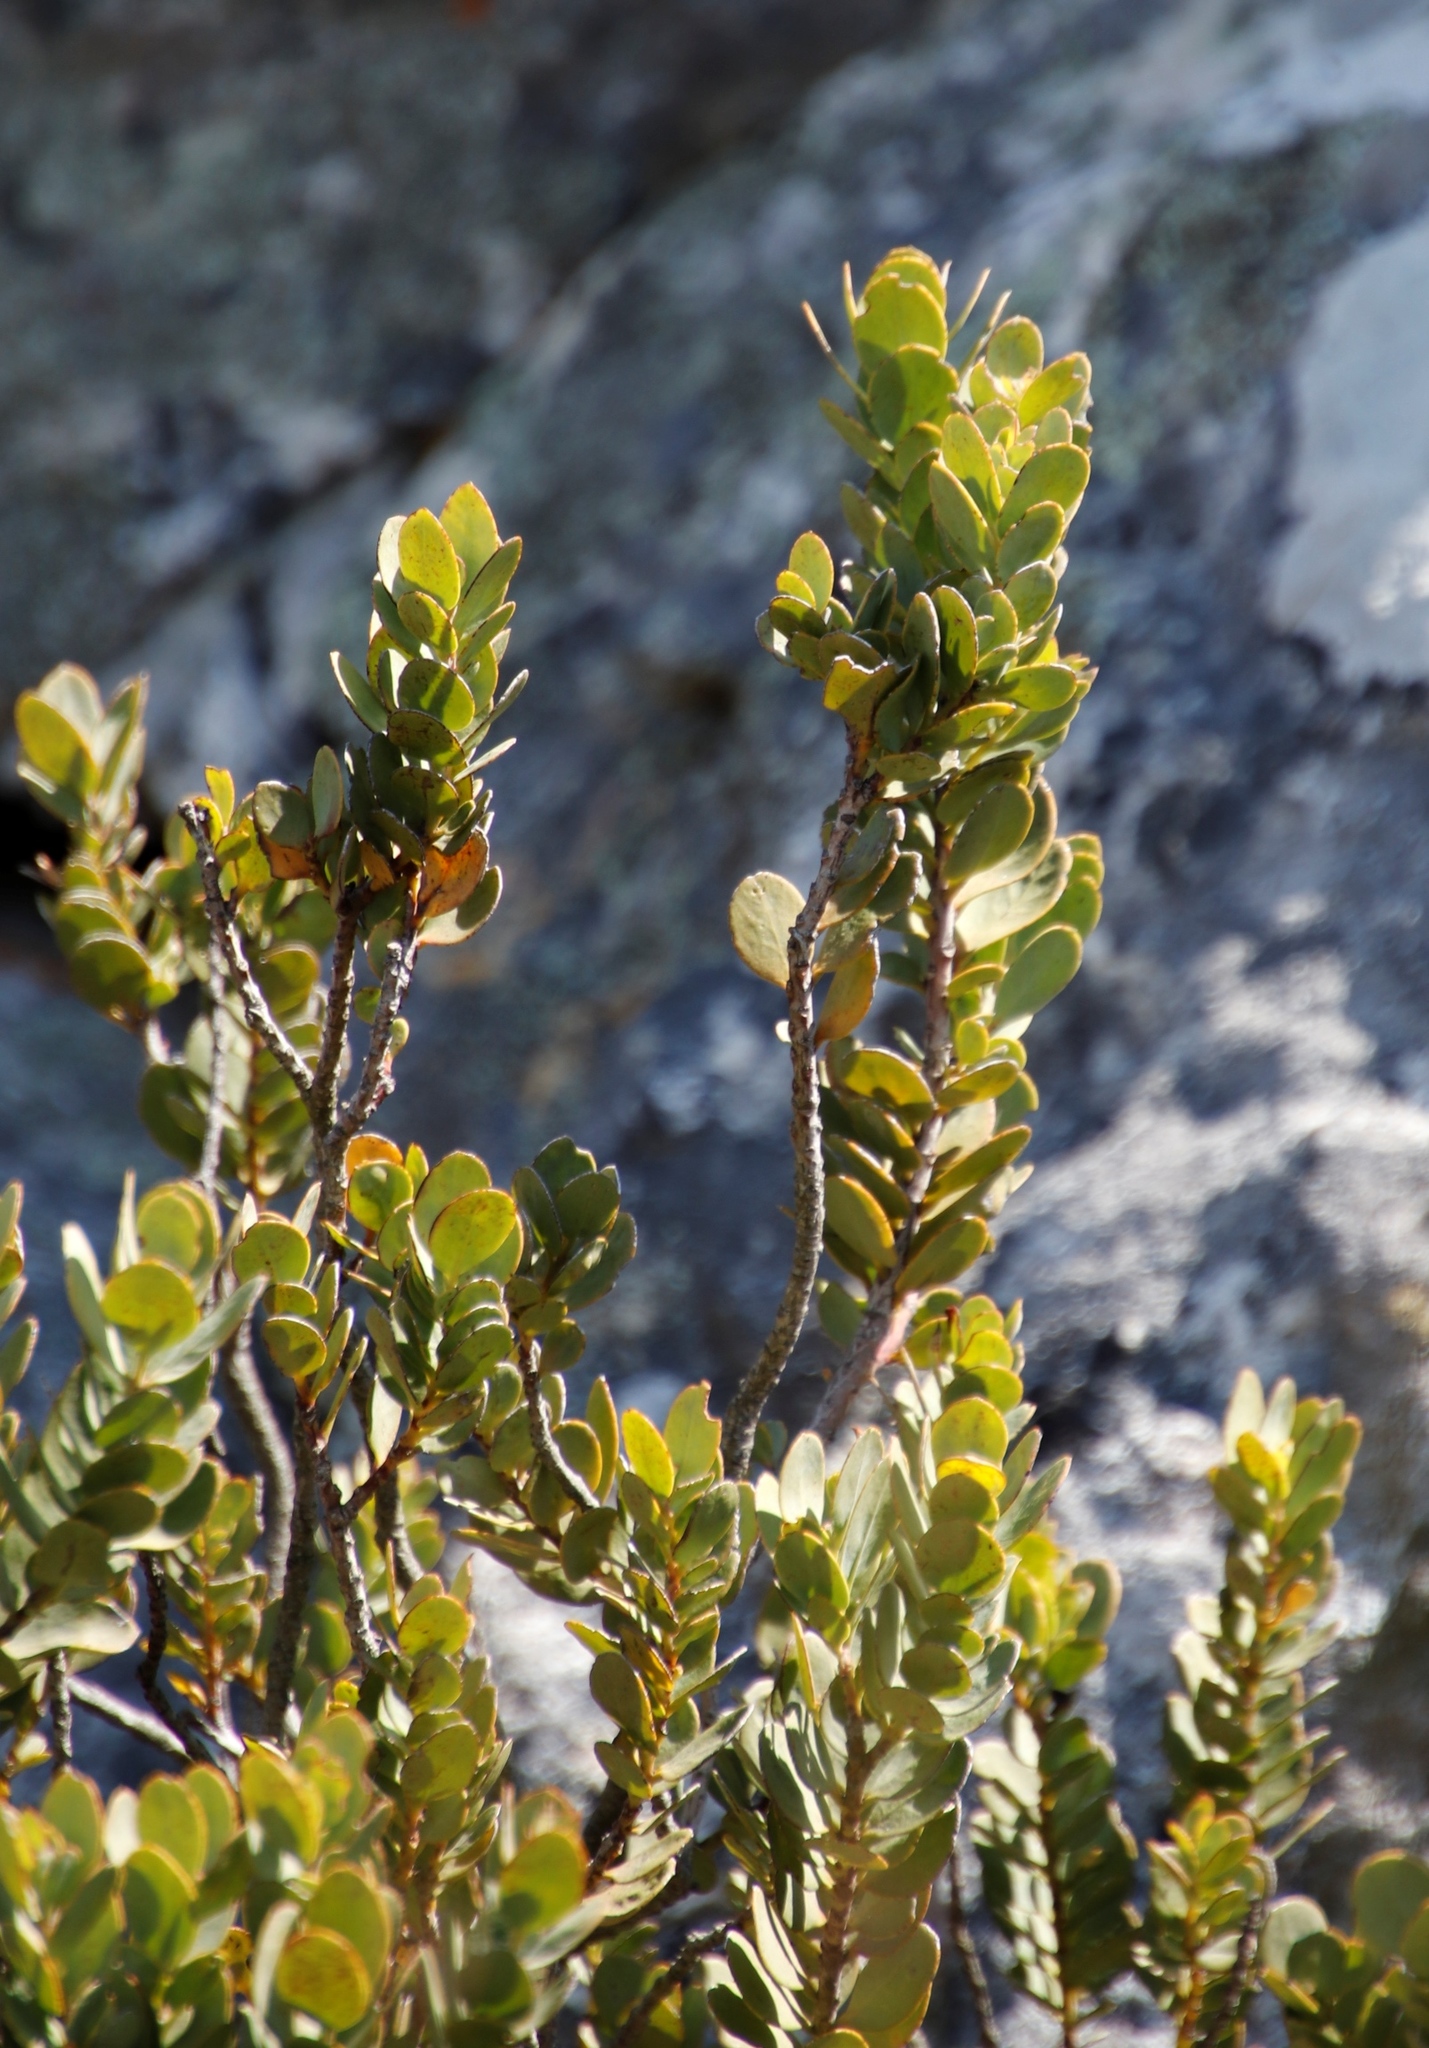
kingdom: Plantae
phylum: Tracheophyta
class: Magnoliopsida
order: Santalales
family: Santalaceae
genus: Osyris
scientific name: Osyris compressa
